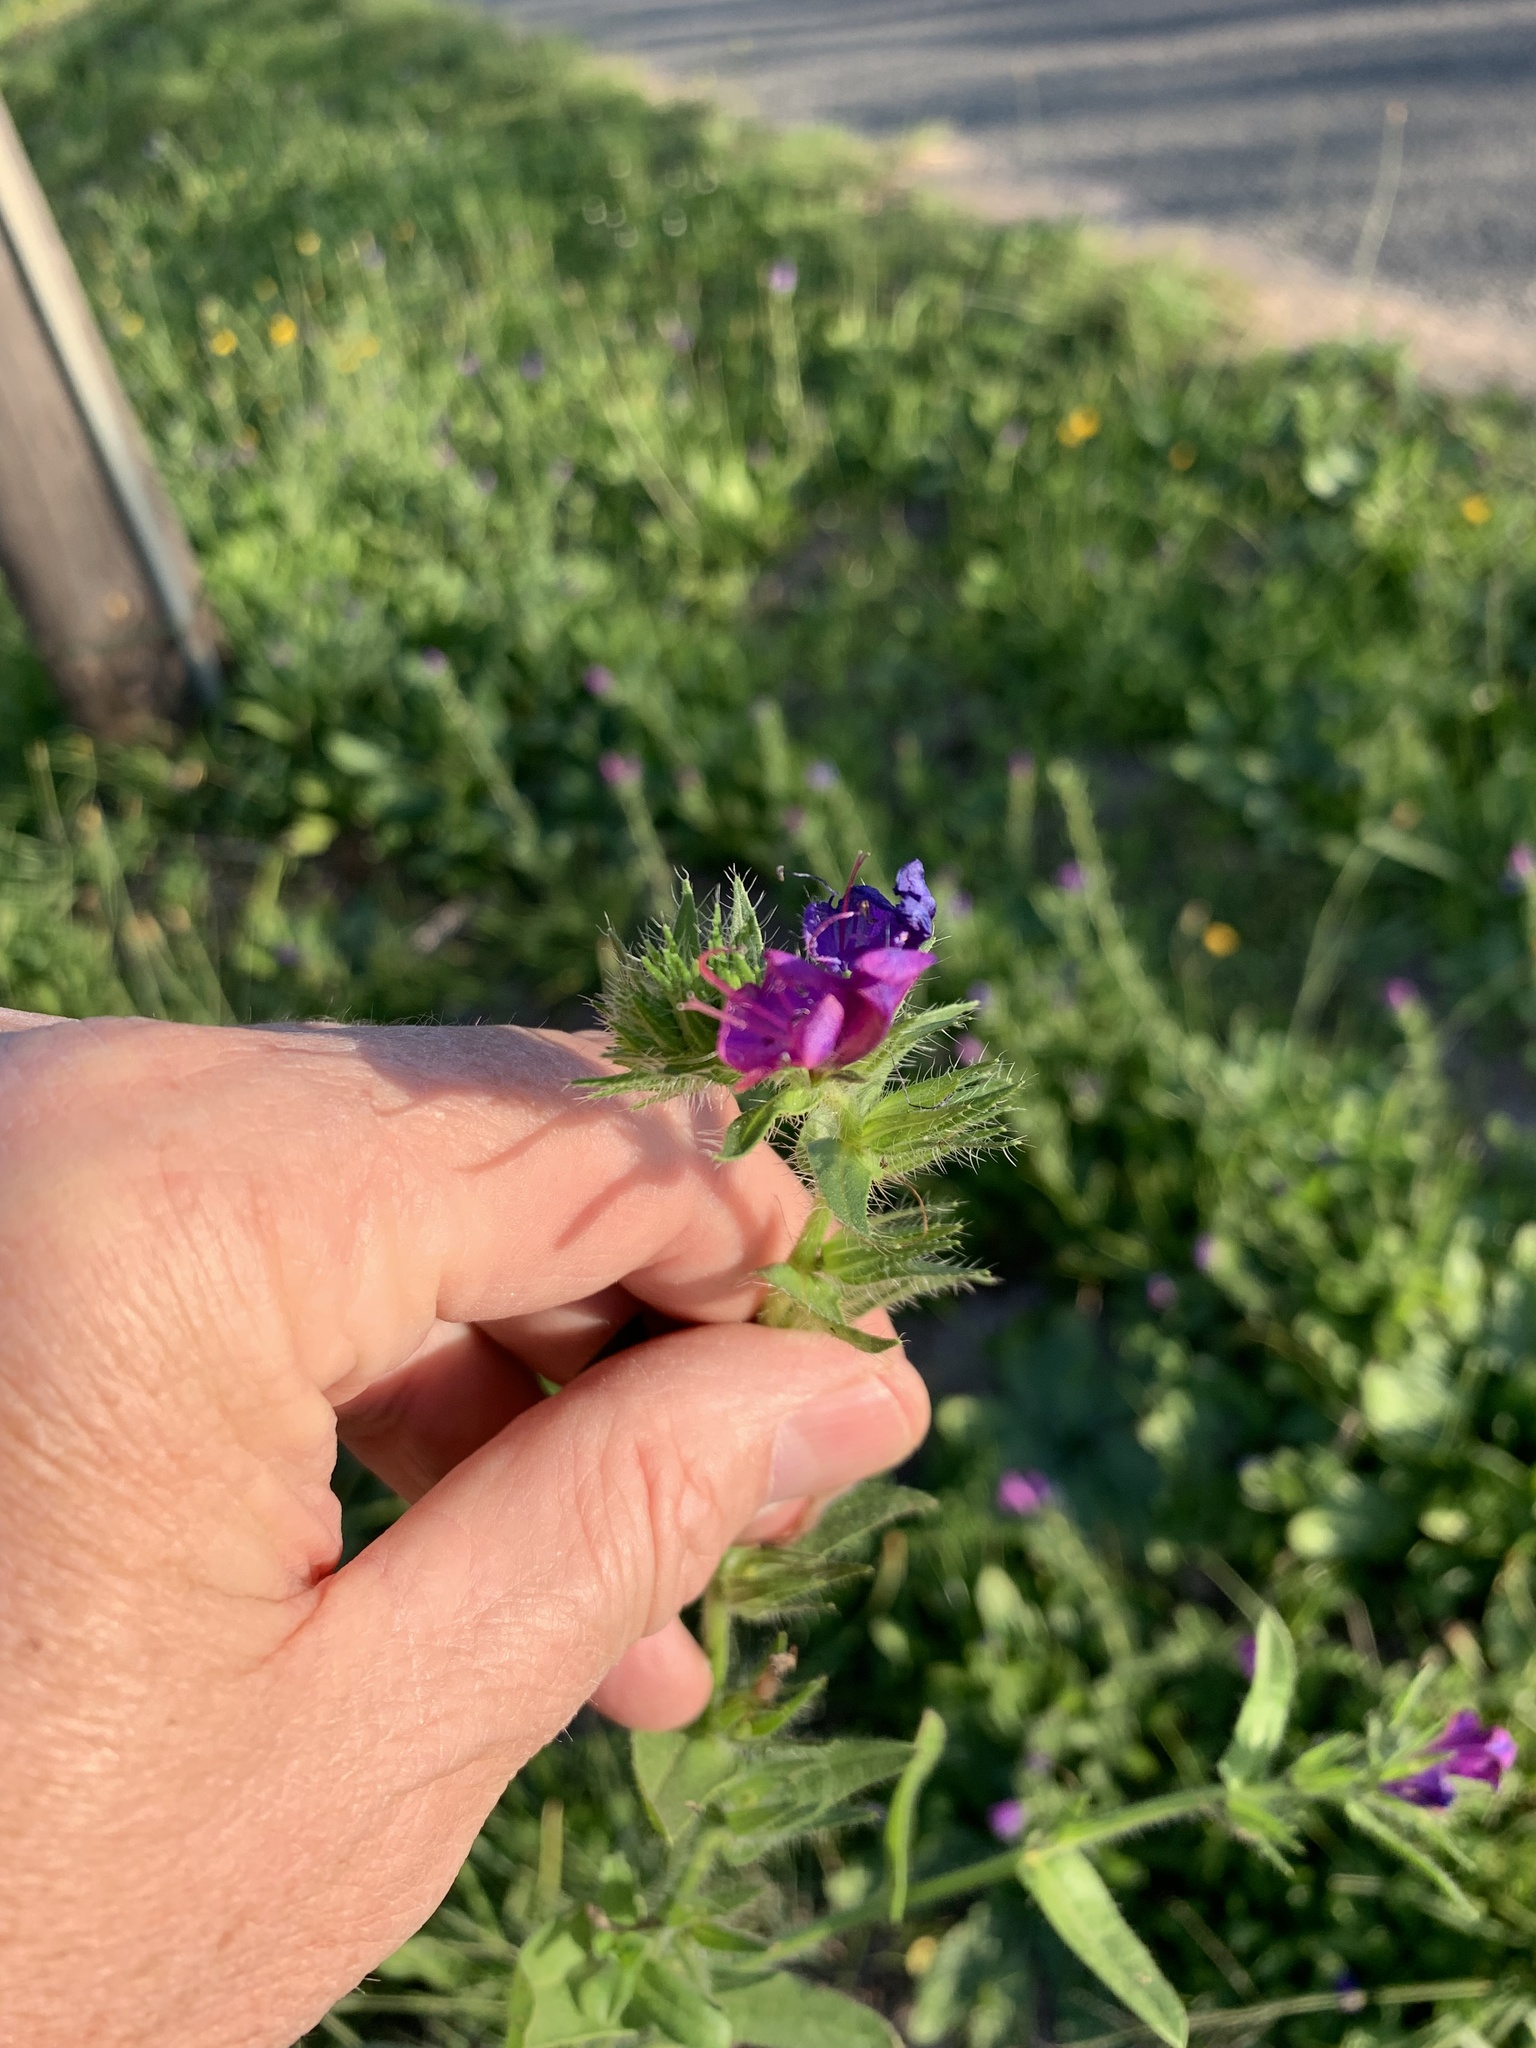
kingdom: Plantae
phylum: Tracheophyta
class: Magnoliopsida
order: Boraginales
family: Boraginaceae
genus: Echium
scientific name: Echium plantagineum
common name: Purple viper's-bugloss
